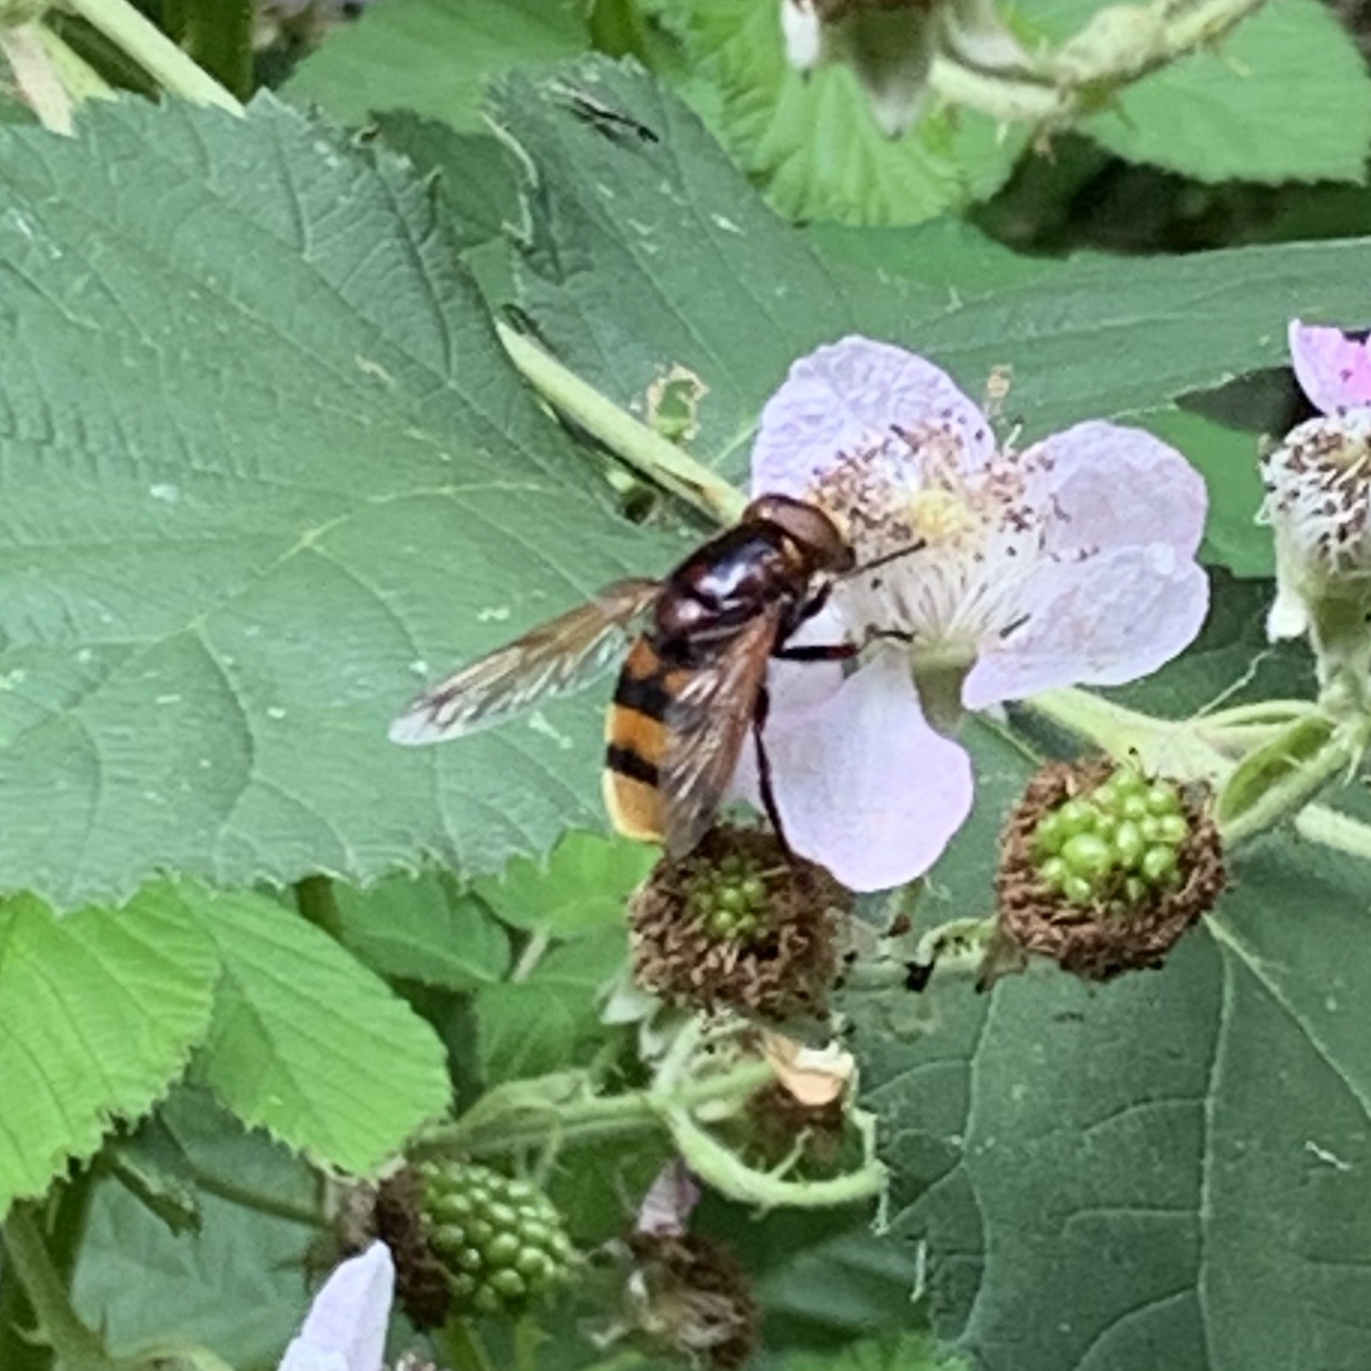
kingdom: Animalia
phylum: Arthropoda
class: Insecta
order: Diptera
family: Syrphidae
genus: Volucella
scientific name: Volucella zonaria
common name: Hornet hoverfly
